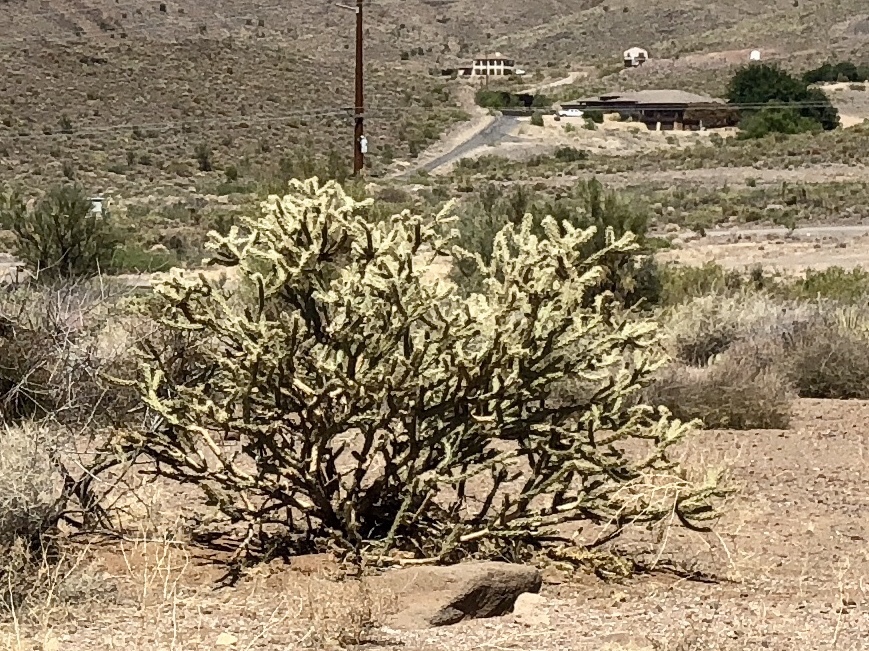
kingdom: Plantae
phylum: Tracheophyta
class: Magnoliopsida
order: Caryophyllales
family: Cactaceae
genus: Cylindropuntia
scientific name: Cylindropuntia acanthocarpa
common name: Buckhorn cholla
